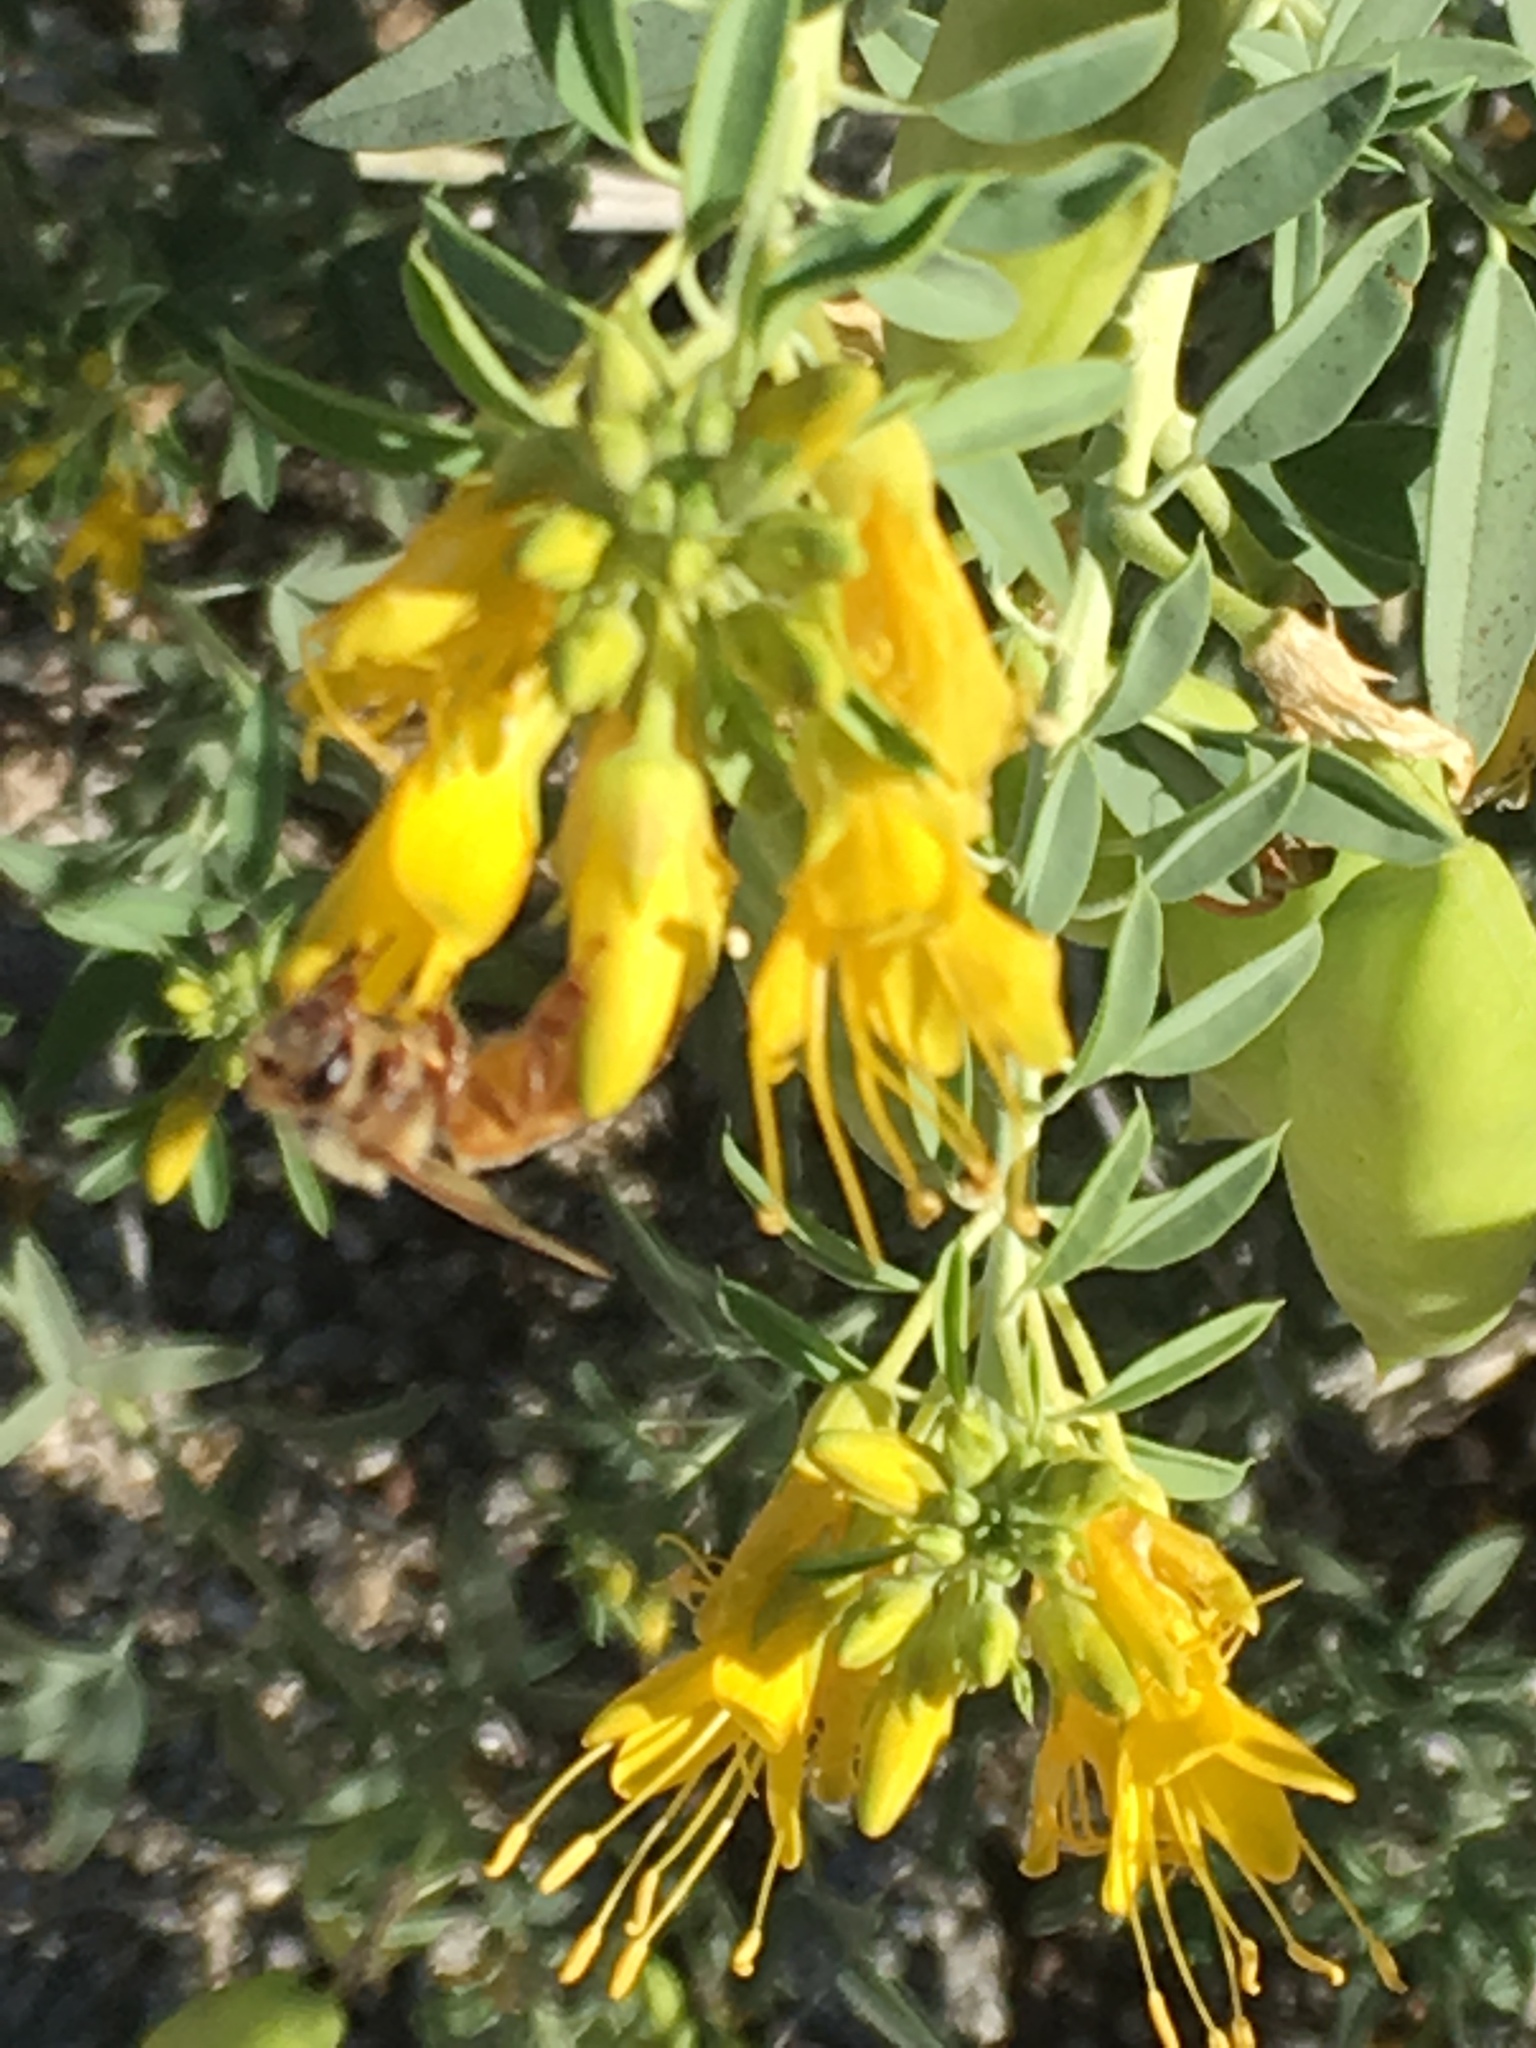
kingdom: Animalia
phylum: Arthropoda
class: Insecta
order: Hymenoptera
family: Apidae
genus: Apis
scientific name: Apis mellifera
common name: Honey bee
